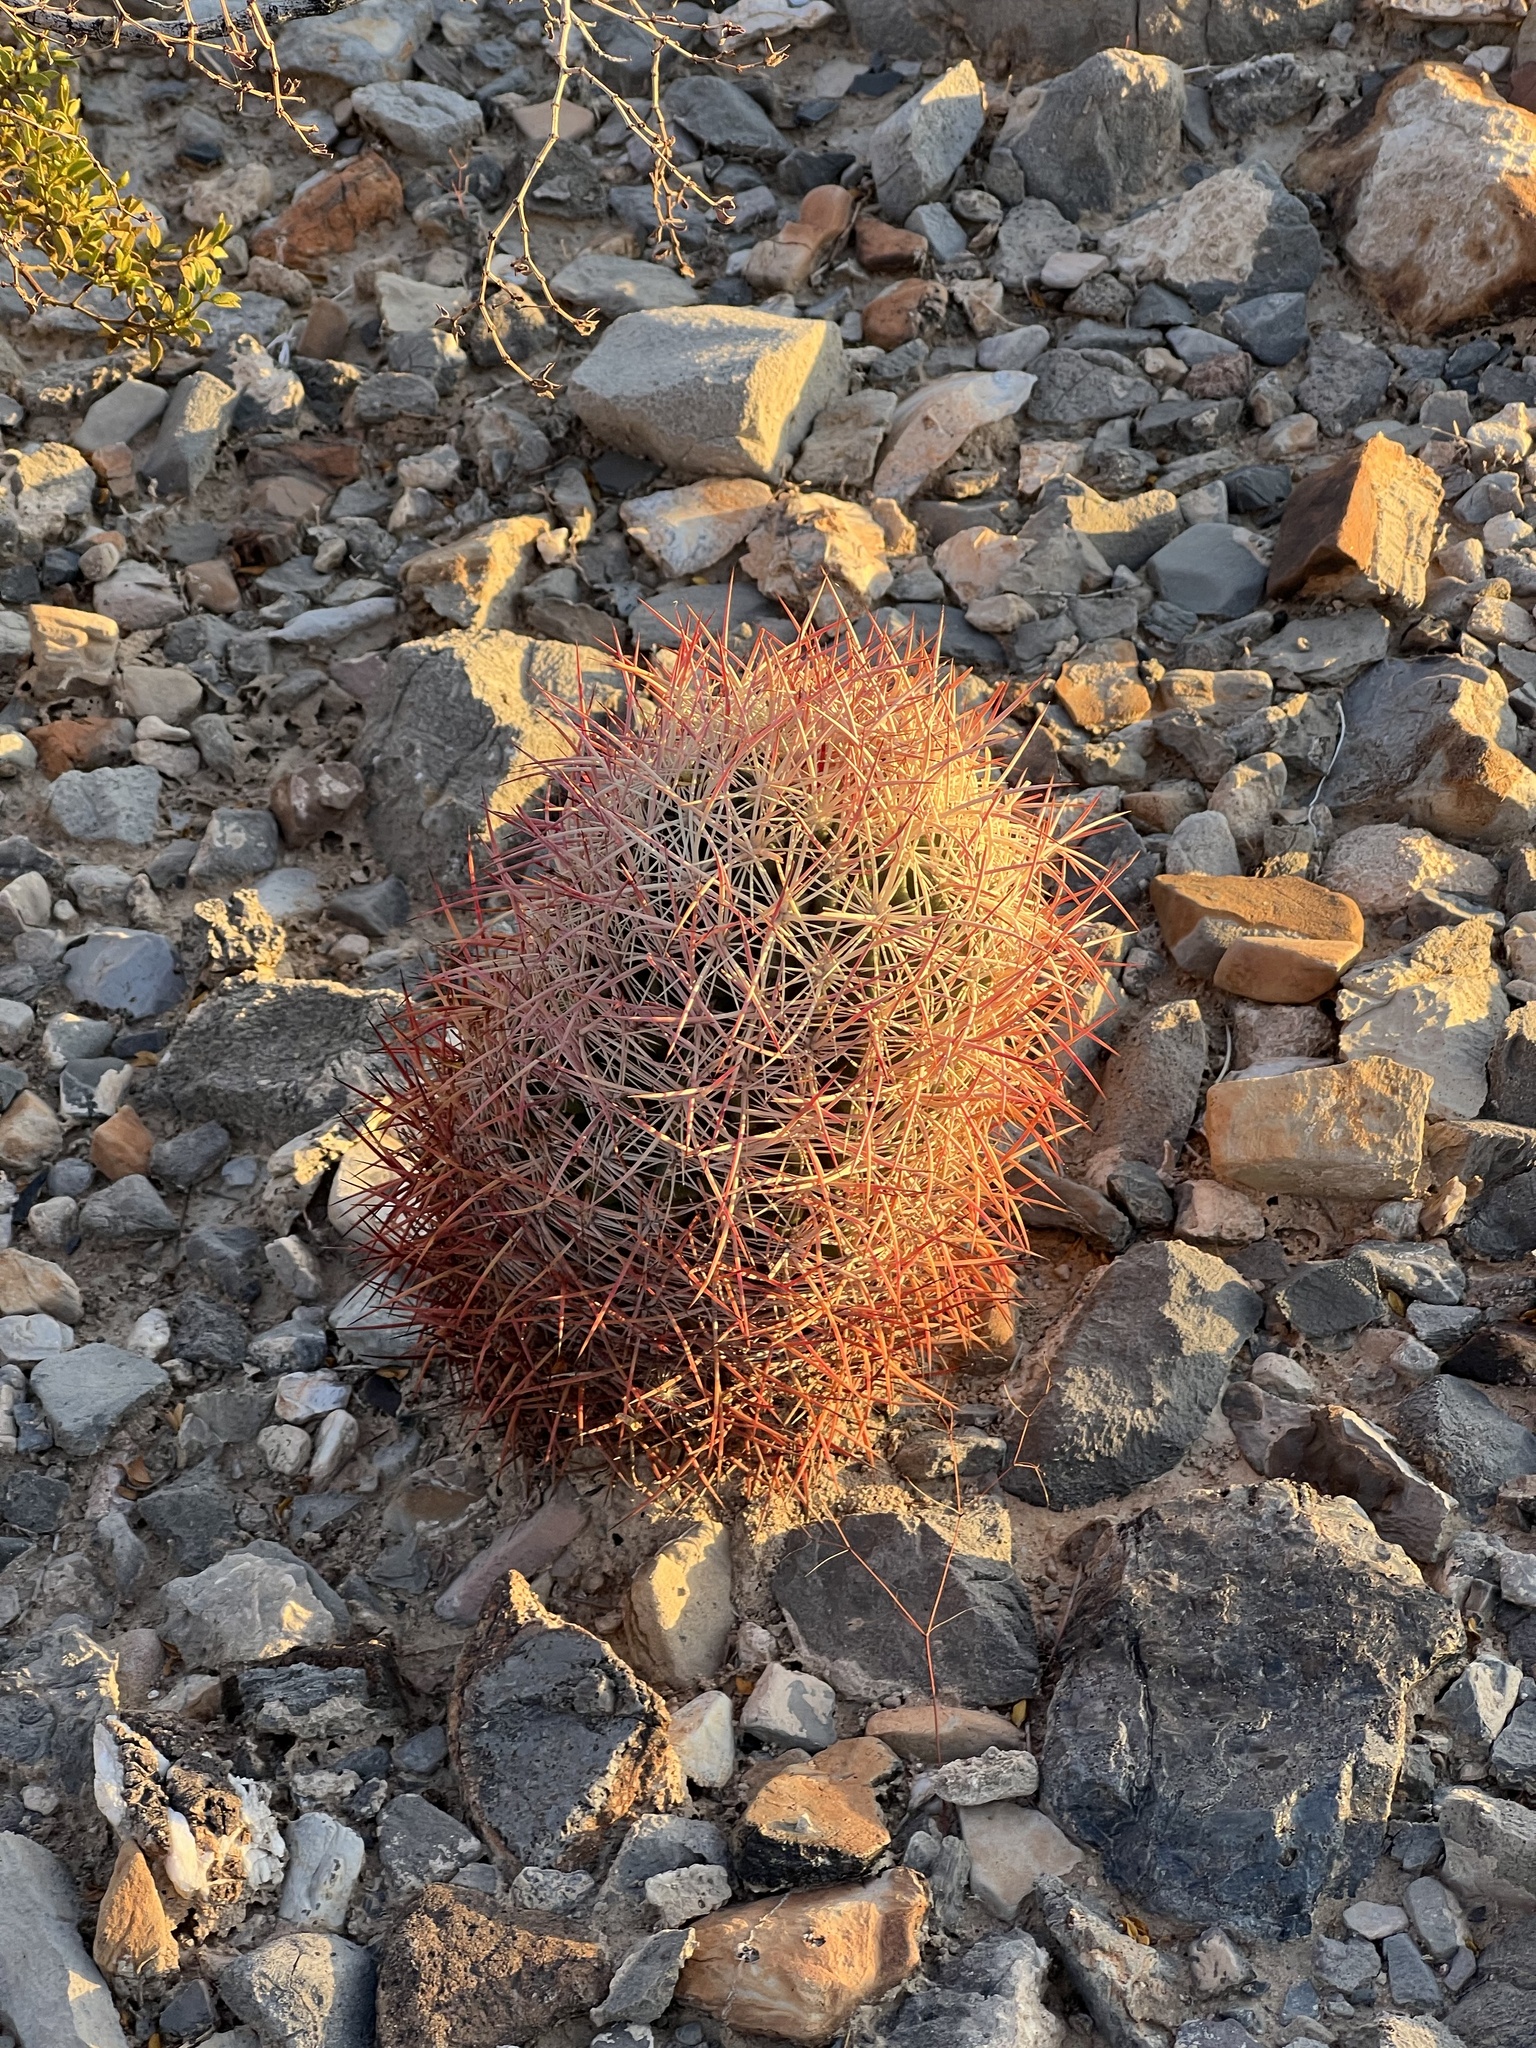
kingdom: Plantae
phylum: Tracheophyta
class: Magnoliopsida
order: Caryophyllales
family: Cactaceae
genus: Sclerocactus
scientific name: Sclerocactus johnsonii
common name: Eight-spine fishhook cactus
